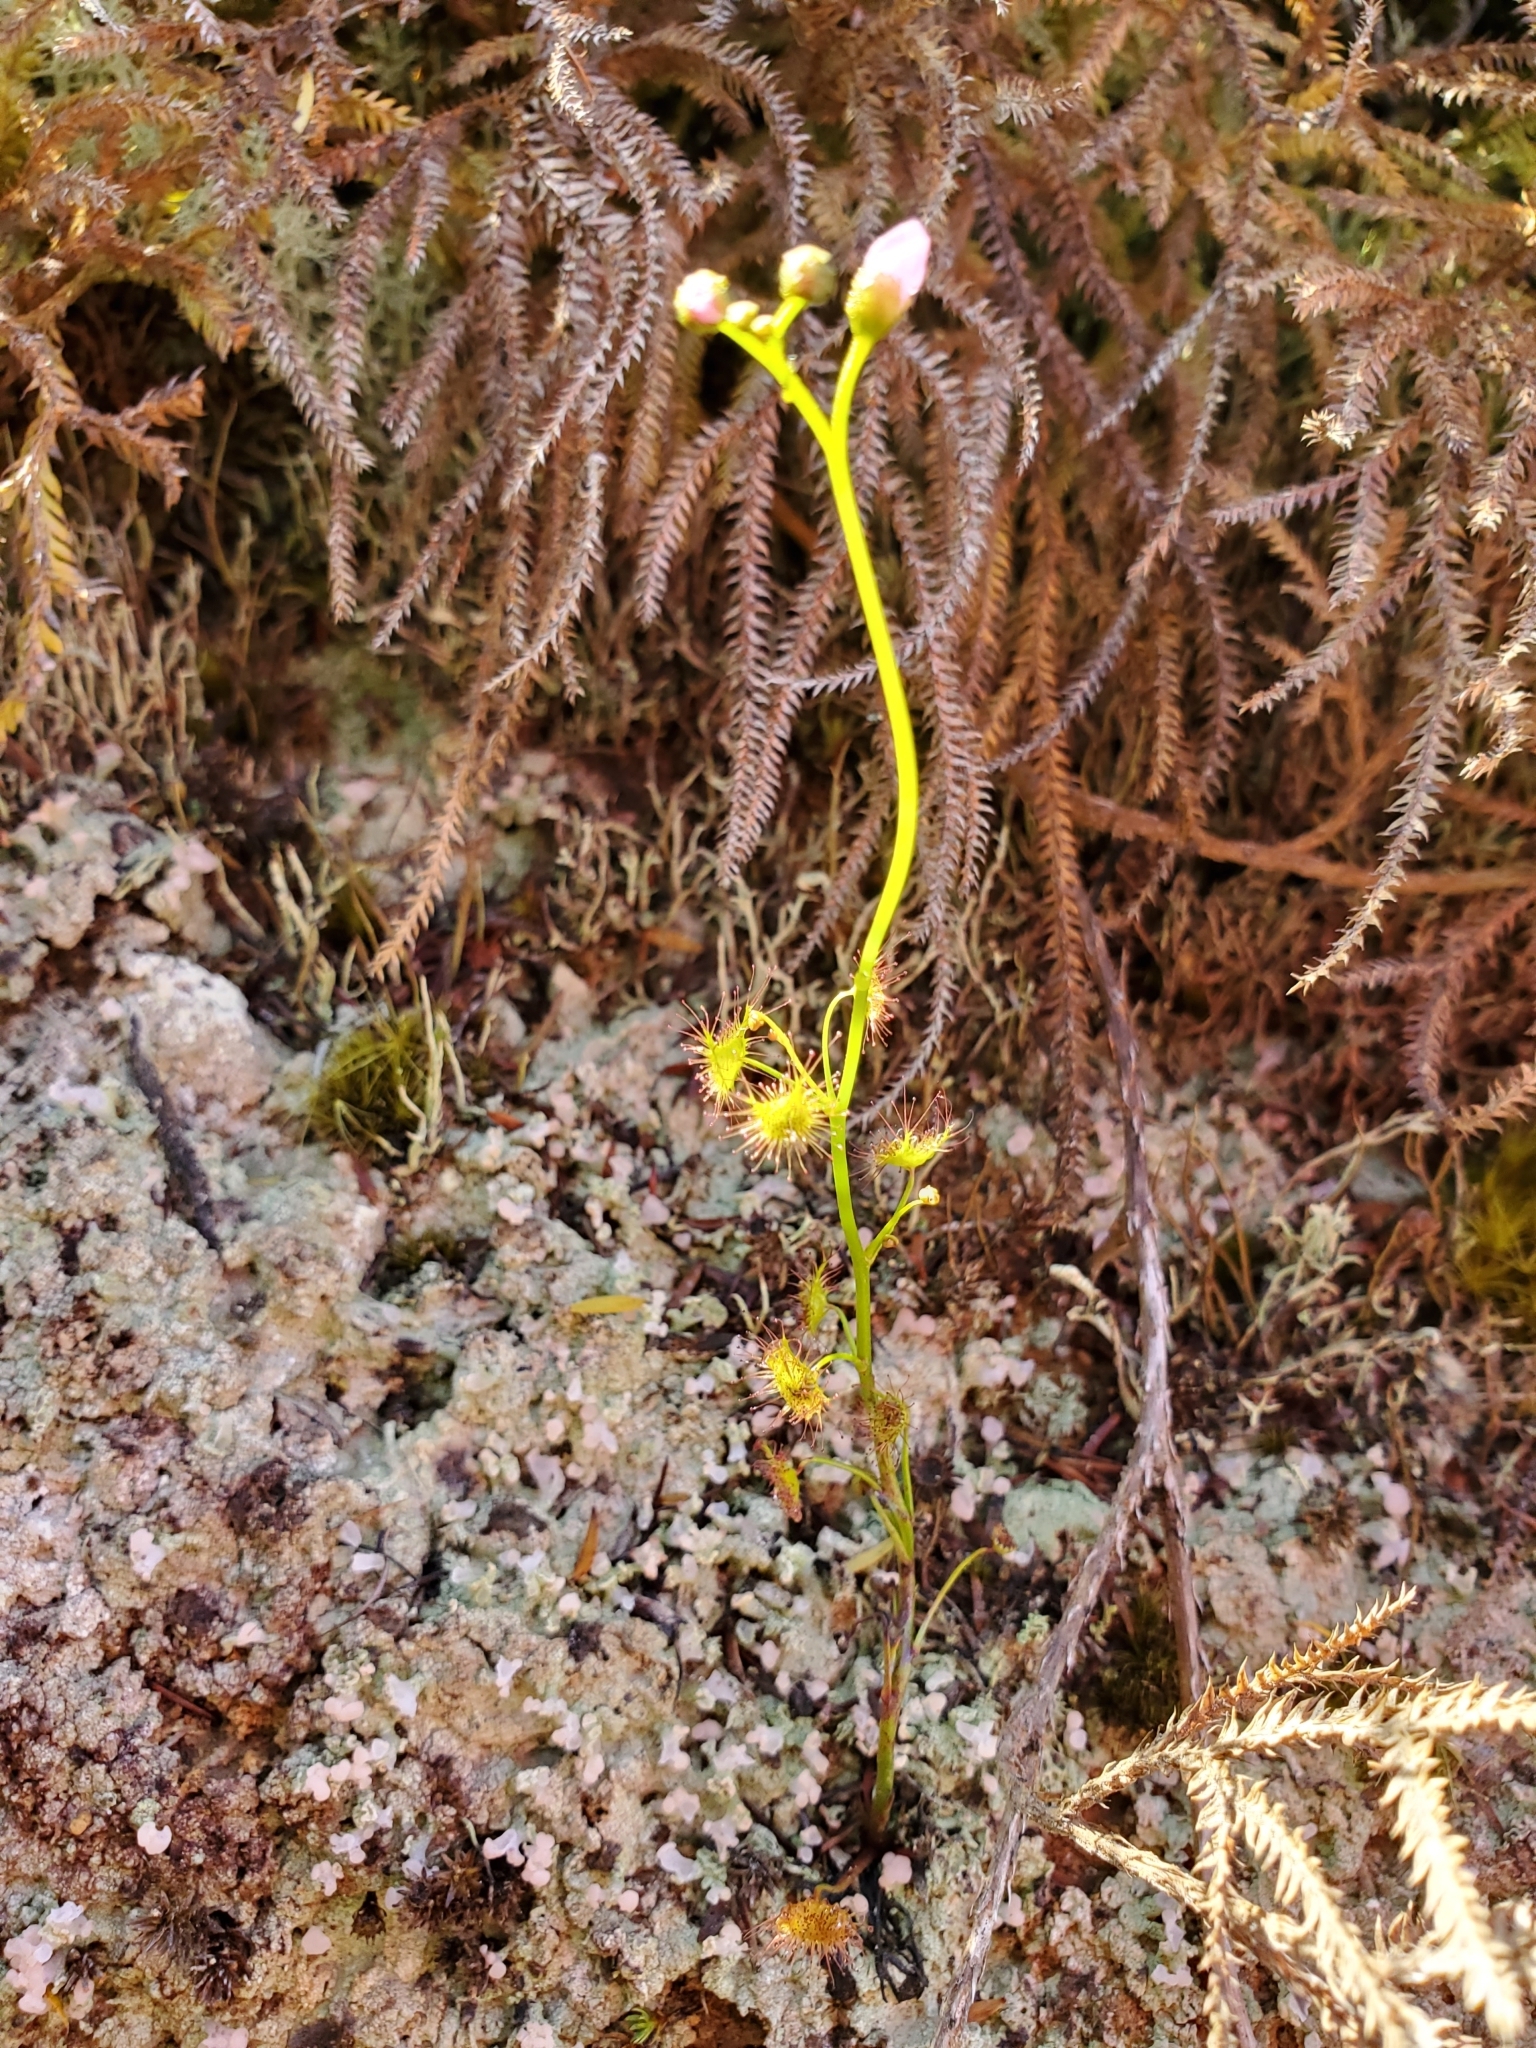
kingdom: Plantae
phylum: Tracheophyta
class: Magnoliopsida
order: Caryophyllales
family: Droseraceae
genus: Drosera
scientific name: Drosera peltata
